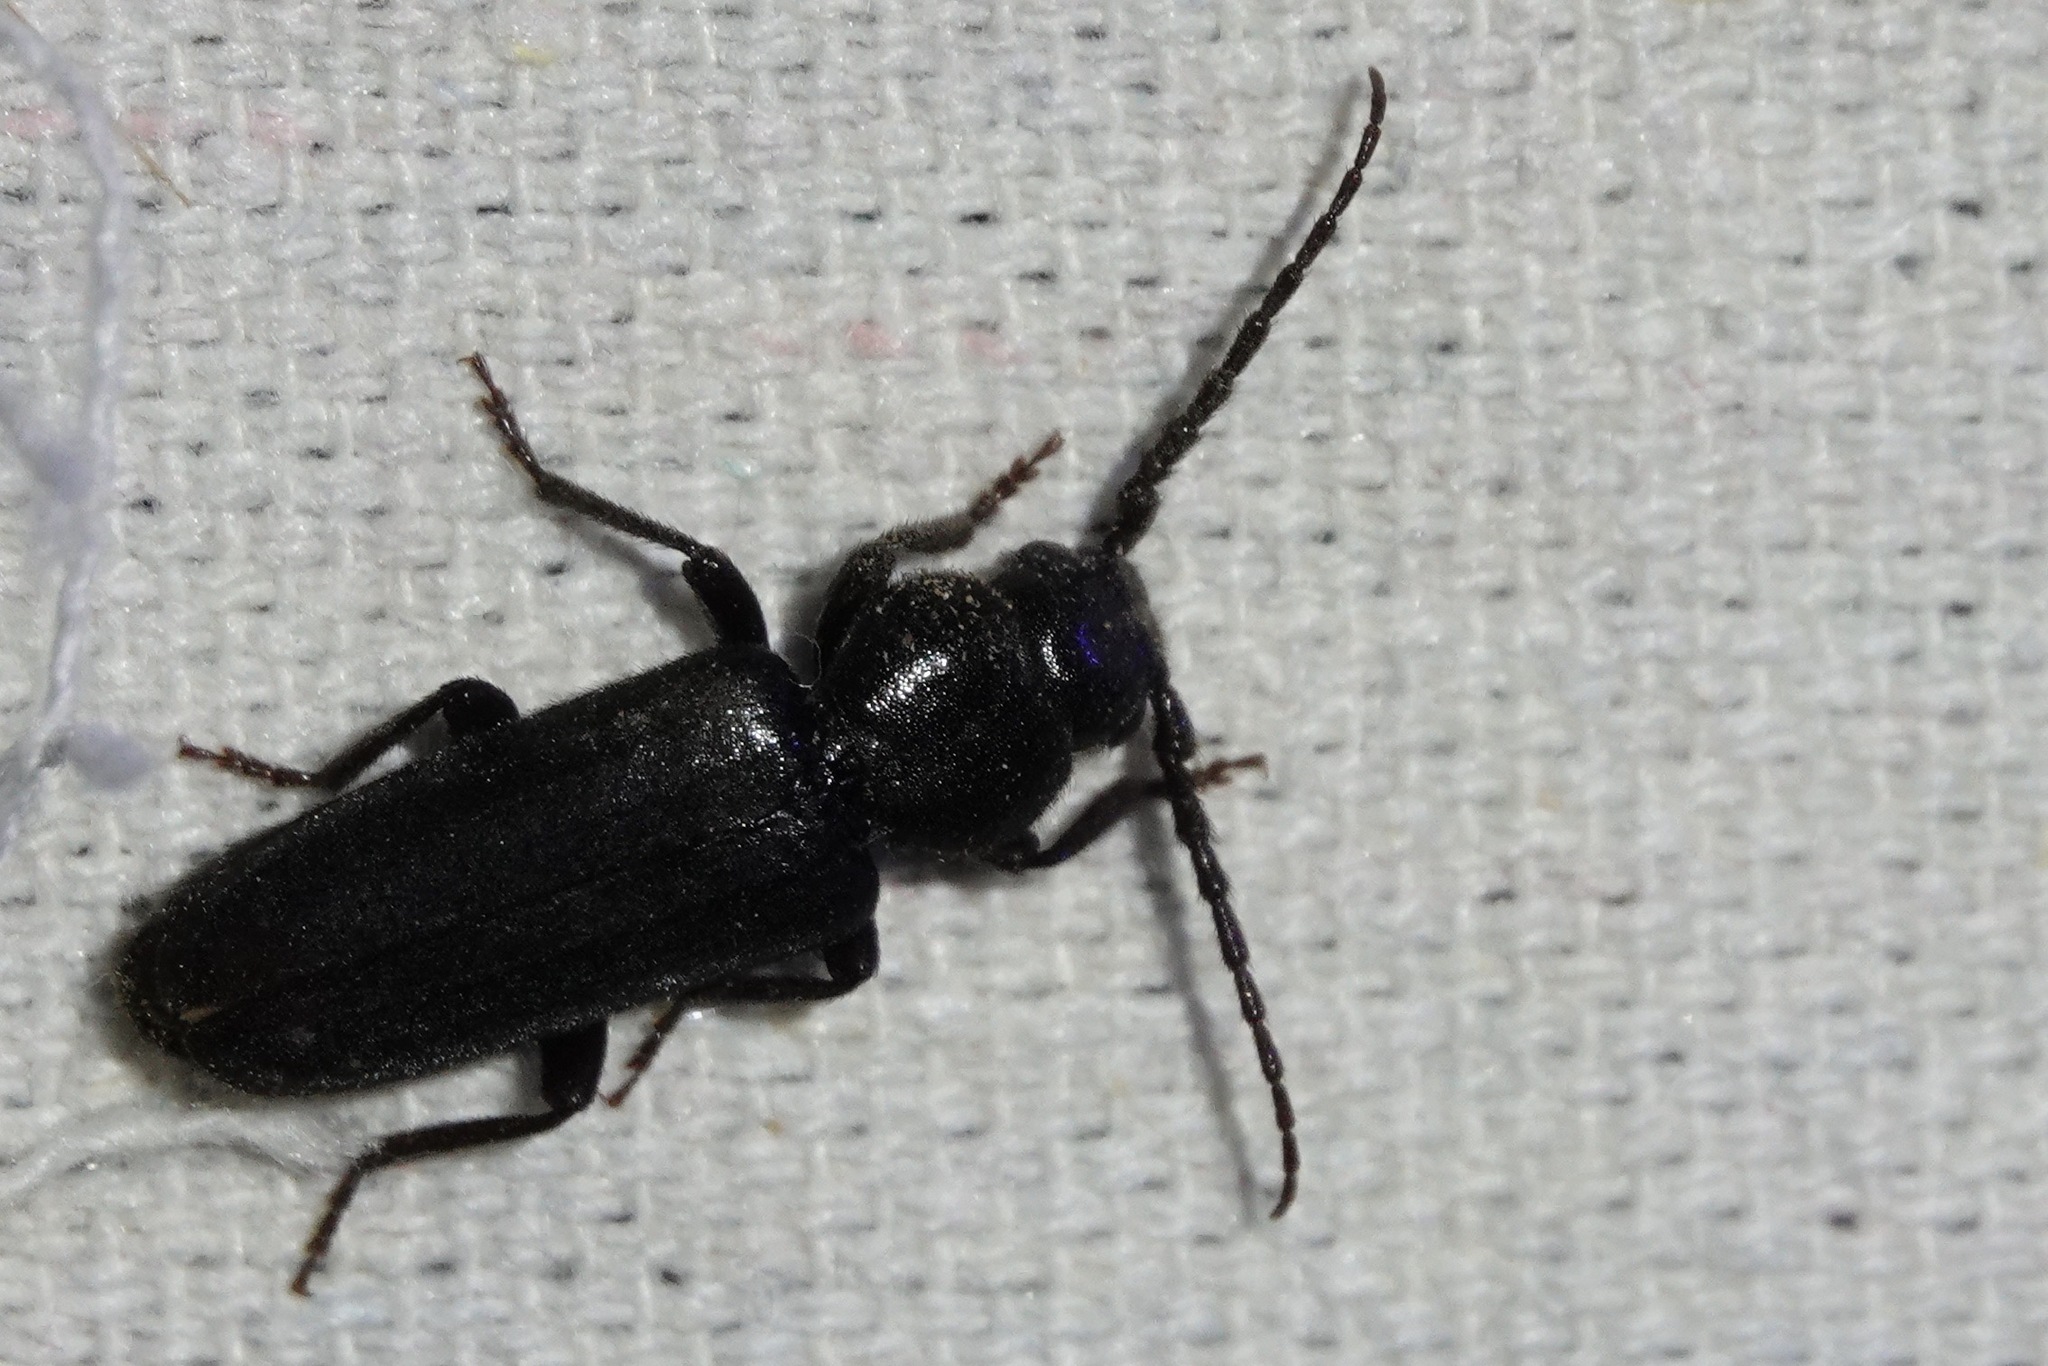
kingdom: Animalia
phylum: Arthropoda
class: Insecta
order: Coleoptera
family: Cerambycidae
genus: Asemum
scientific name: Asemum nitidum
